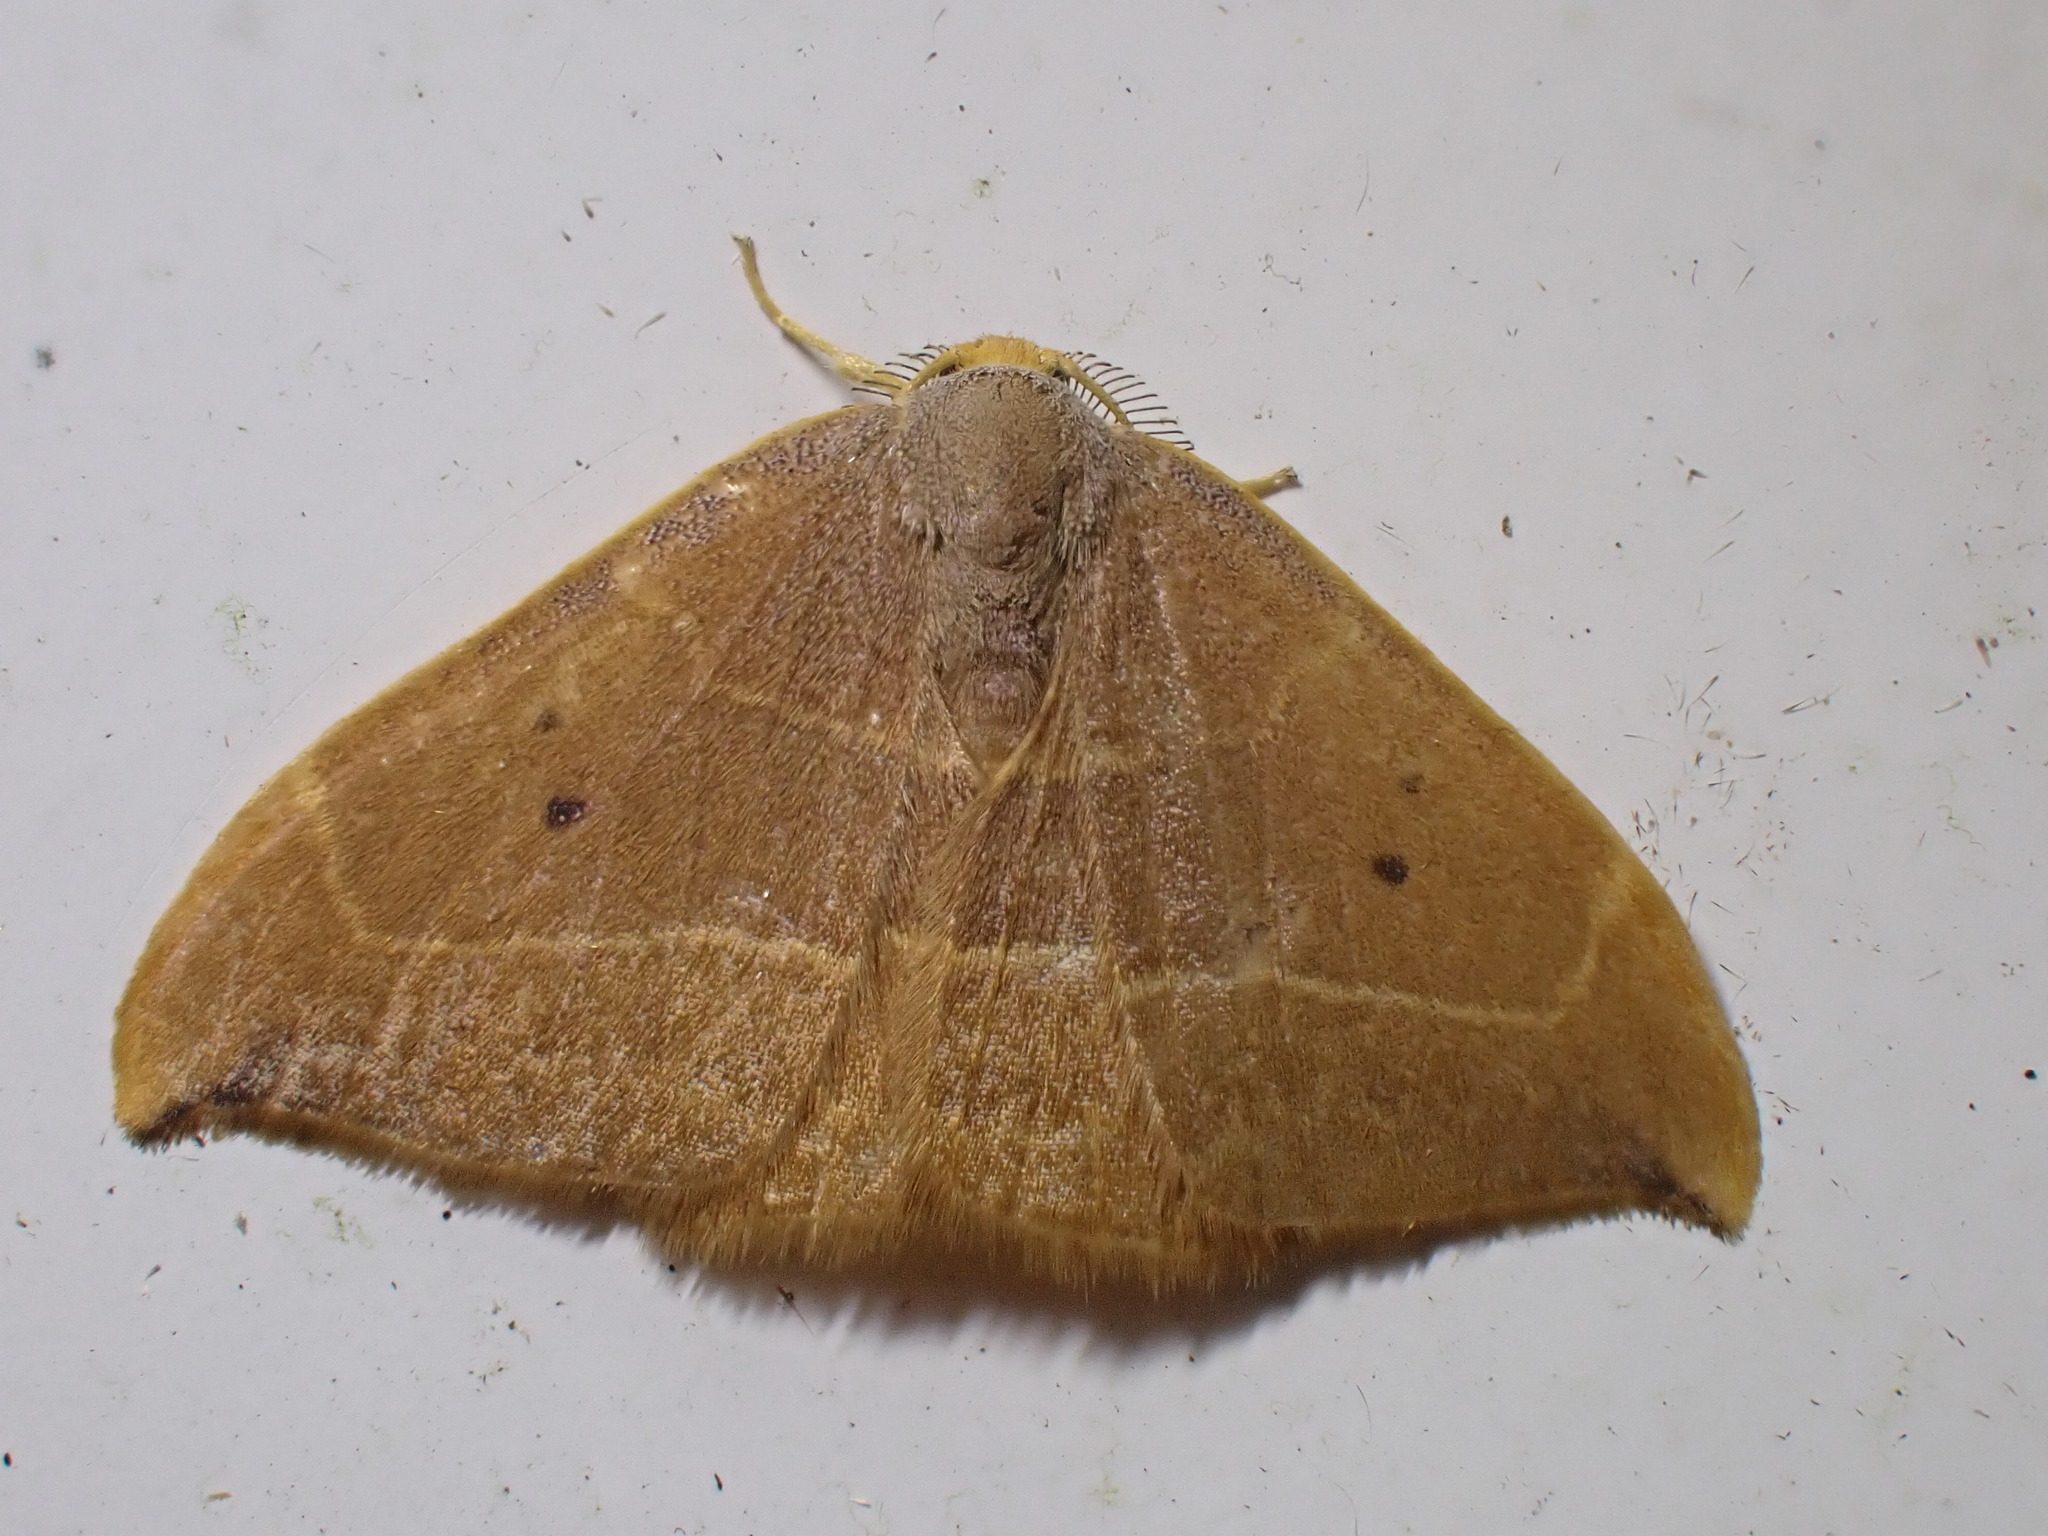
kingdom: Animalia
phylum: Arthropoda
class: Insecta
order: Lepidoptera
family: Drepanidae
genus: Watsonalla
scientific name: Watsonalla binaria
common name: Oak hook-tip
